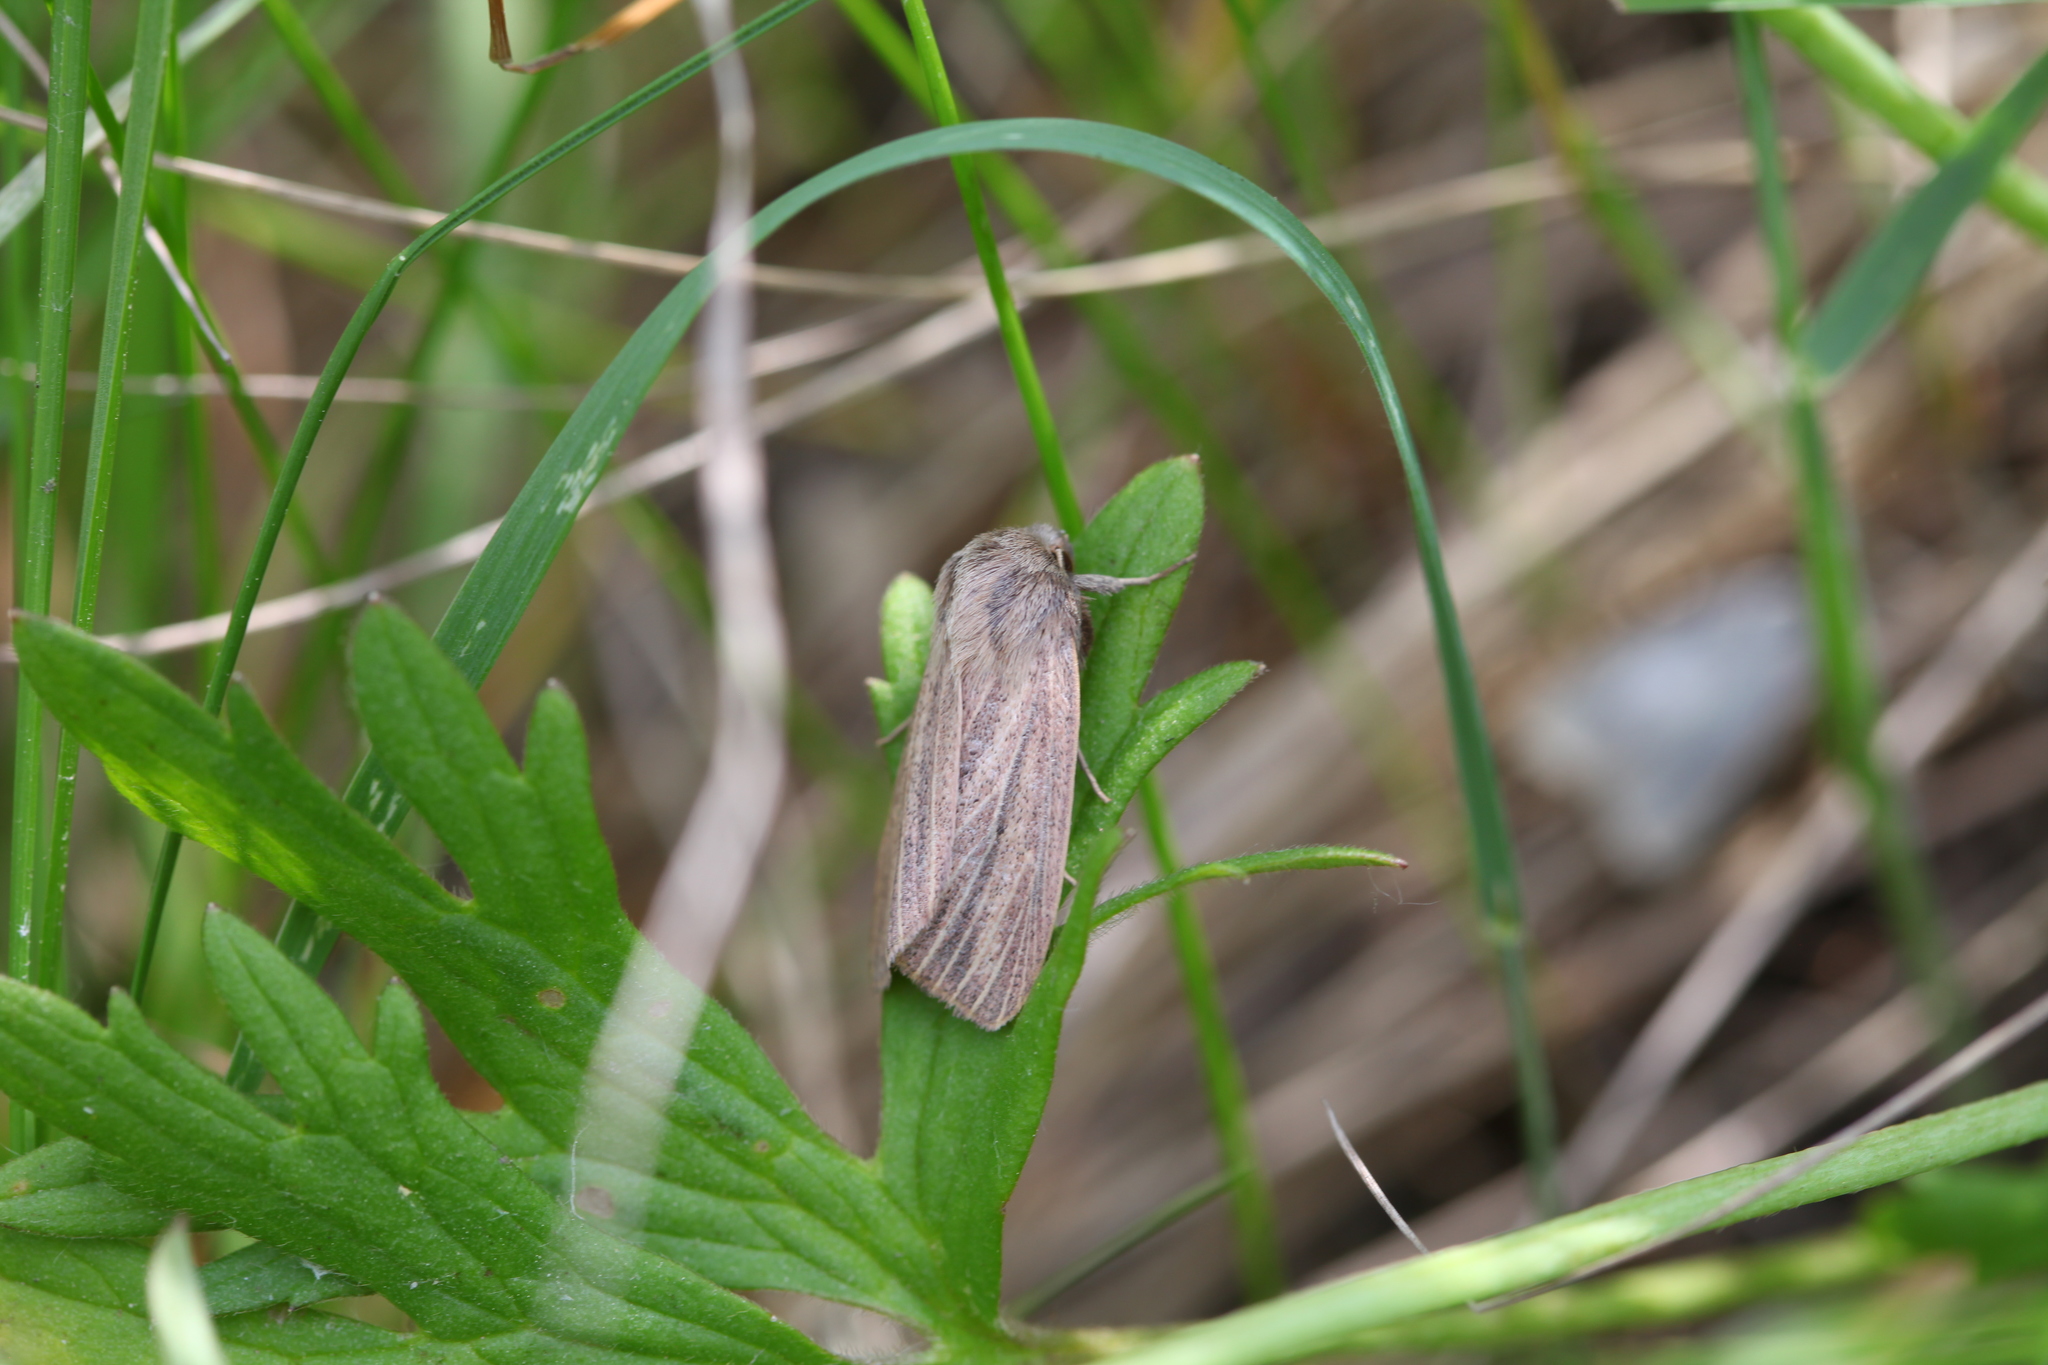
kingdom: Animalia
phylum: Arthropoda
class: Insecta
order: Lepidoptera
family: Noctuidae
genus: Mythimna
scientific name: Mythimna pudorina
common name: Striped wainscot
